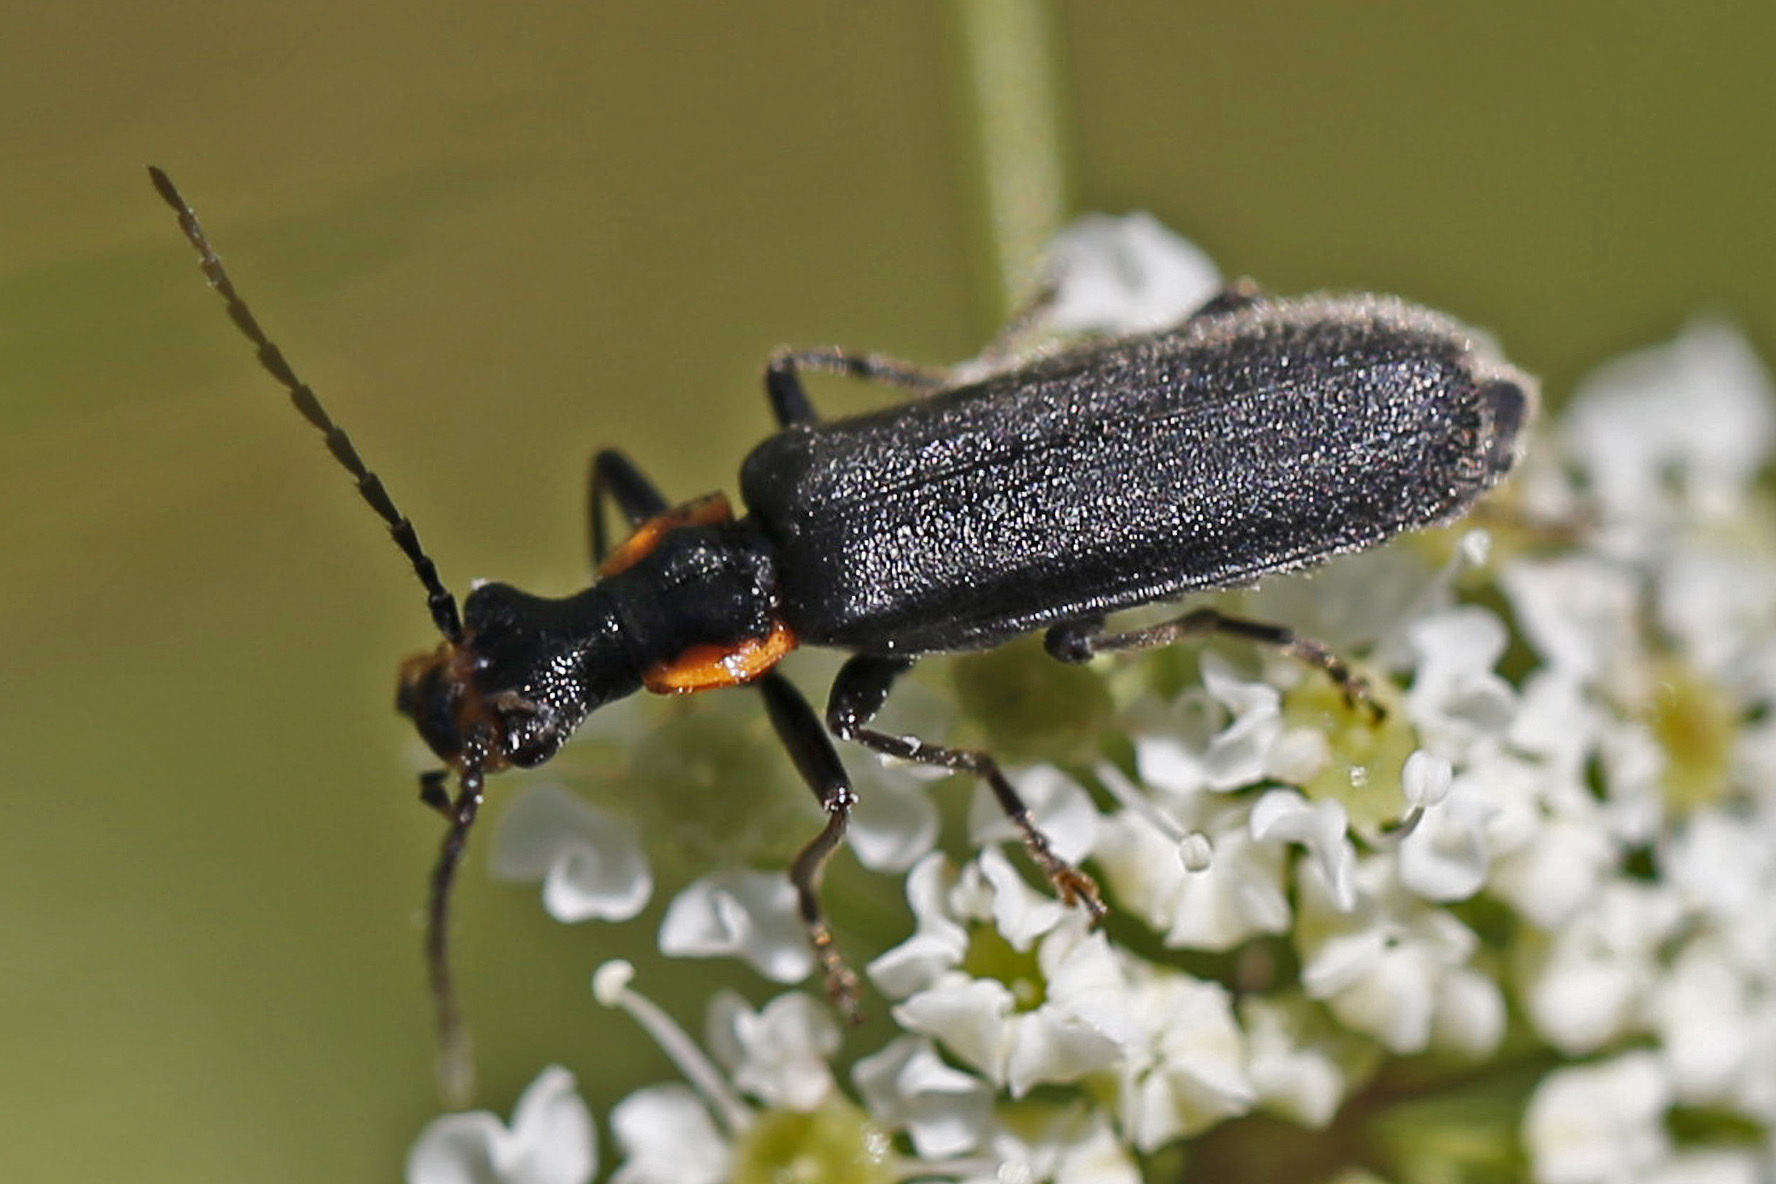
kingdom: Animalia
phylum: Arthropoda
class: Insecta
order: Coleoptera
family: Cantharidae
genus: Podabrus
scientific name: Podabrus rugosulus
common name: Wrinkled soldier beetle
